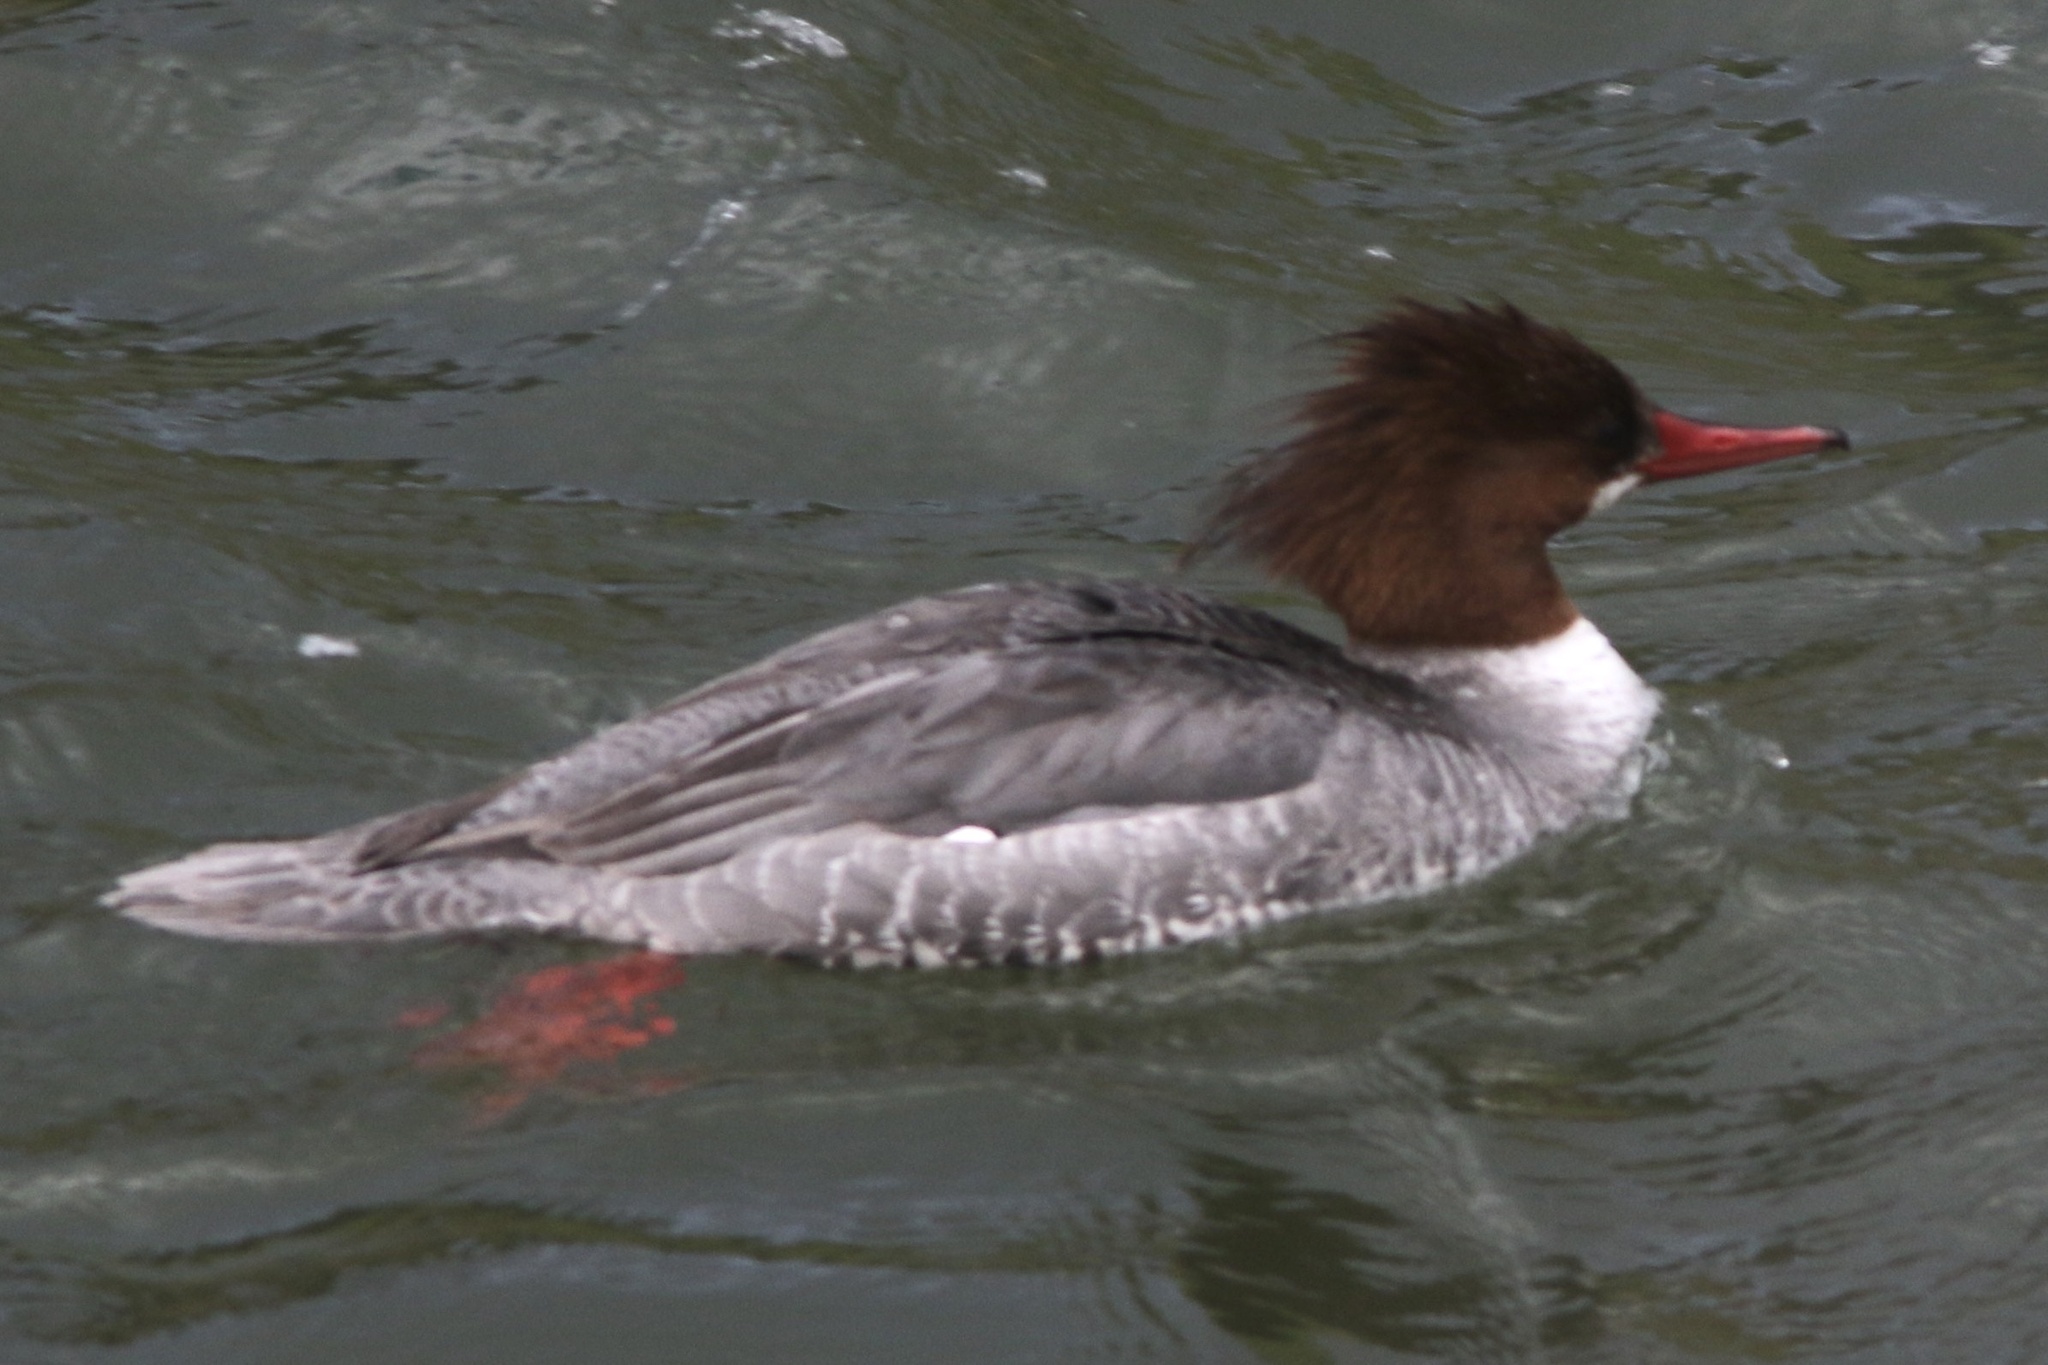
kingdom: Animalia
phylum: Chordata
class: Aves
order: Anseriformes
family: Anatidae
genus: Mergus
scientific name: Mergus merganser
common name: Common merganser
